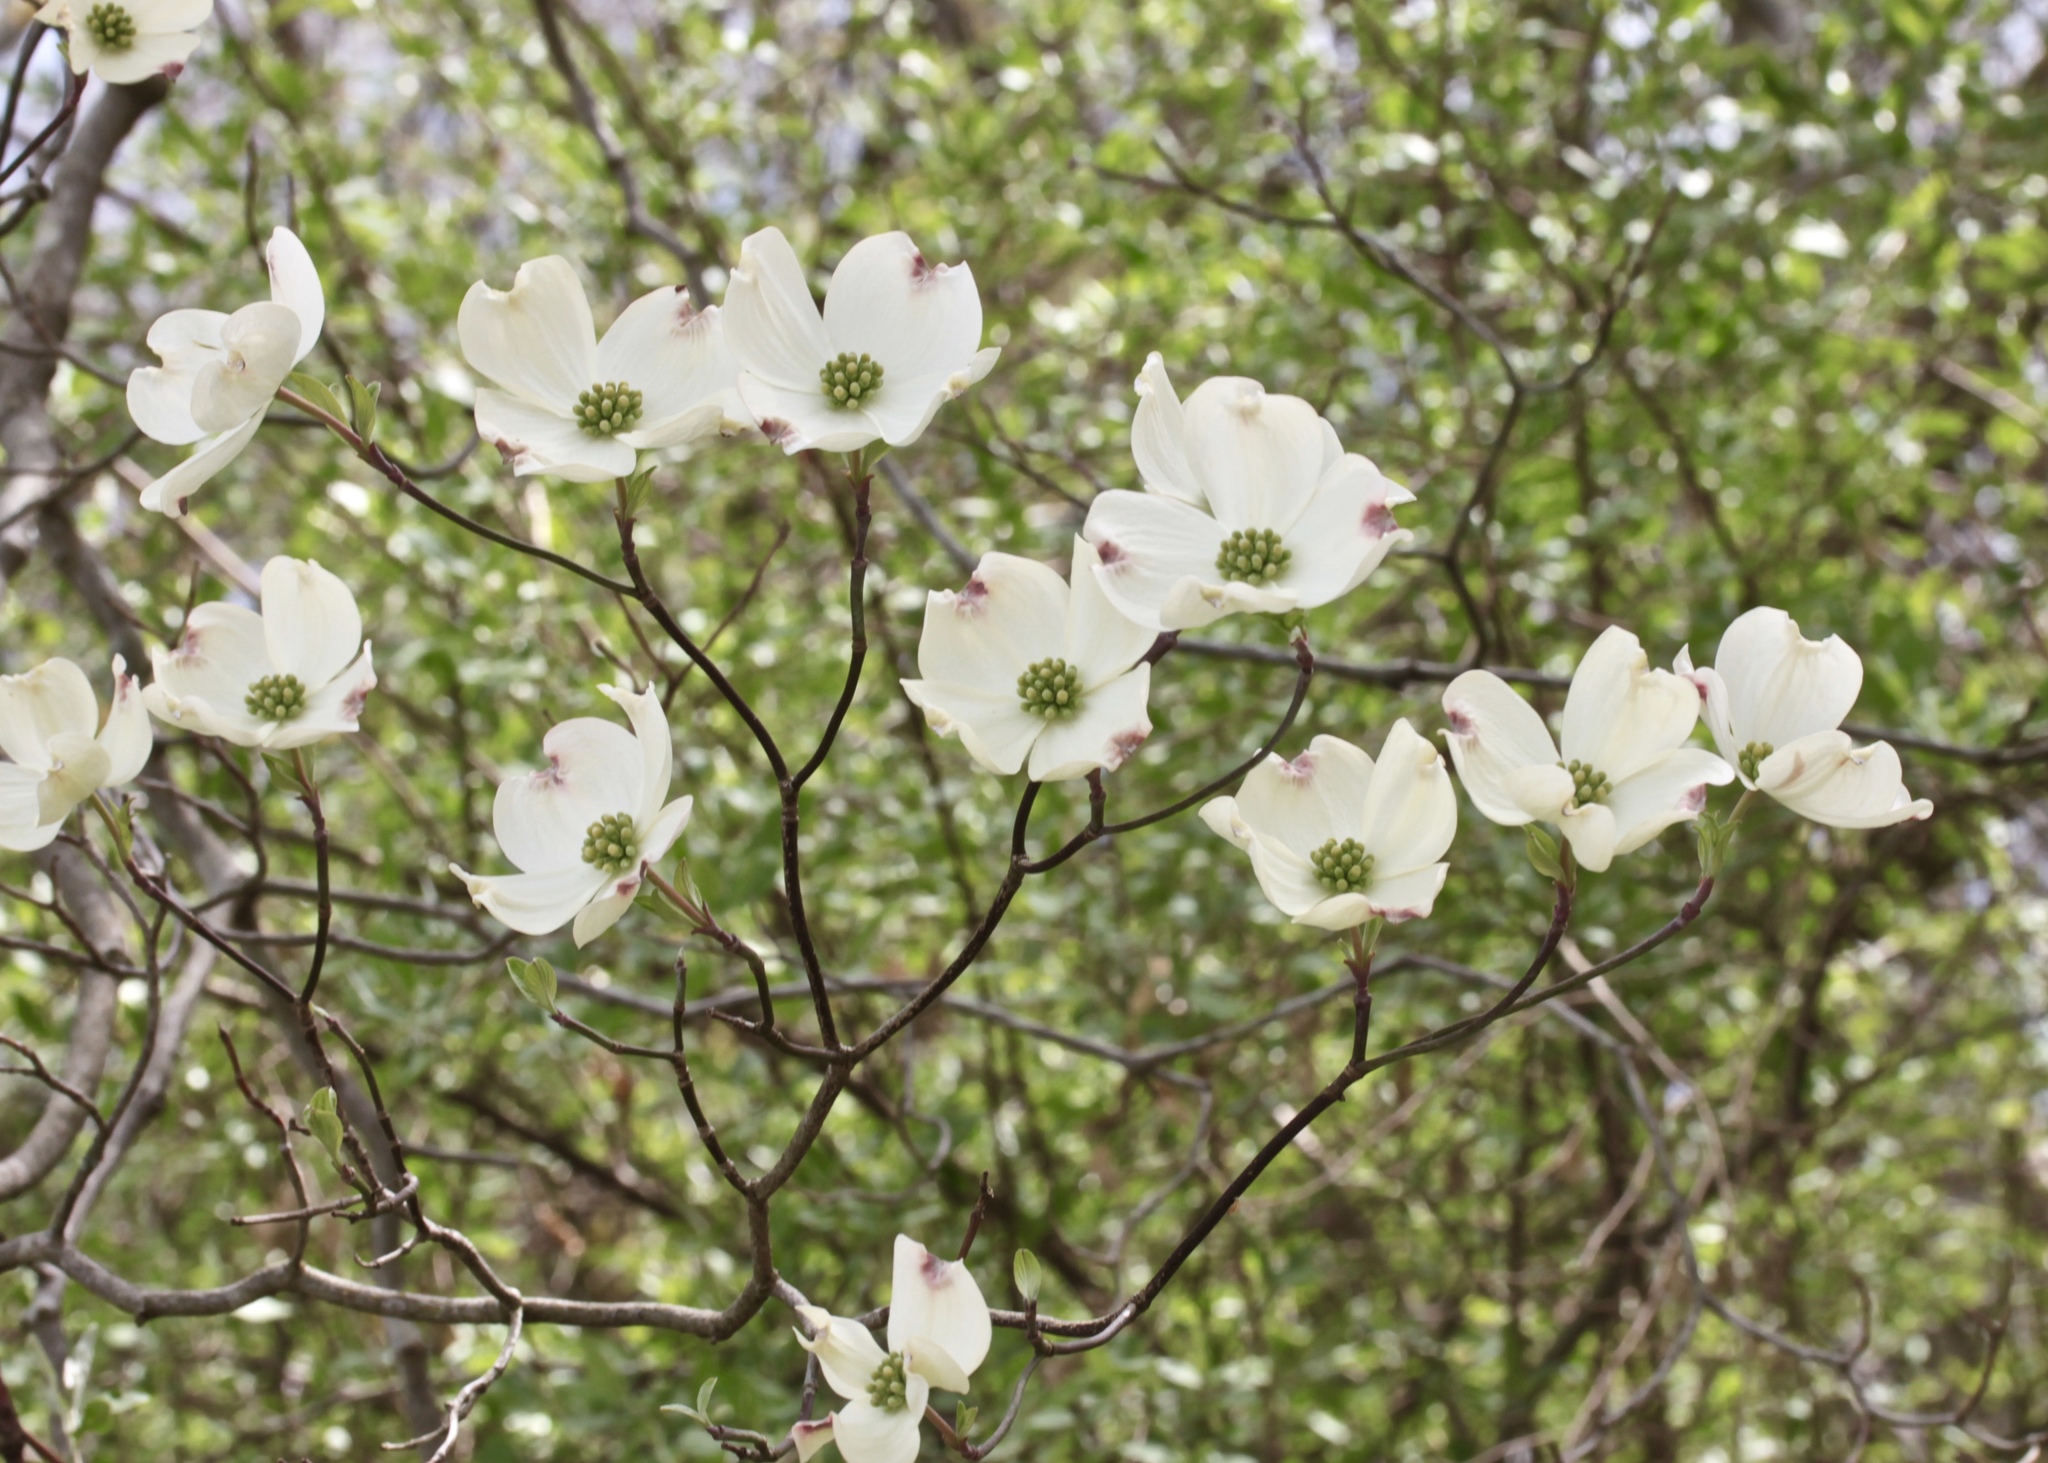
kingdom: Plantae
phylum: Tracheophyta
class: Magnoliopsida
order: Cornales
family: Cornaceae
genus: Cornus
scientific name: Cornus florida
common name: Flowering dogwood
